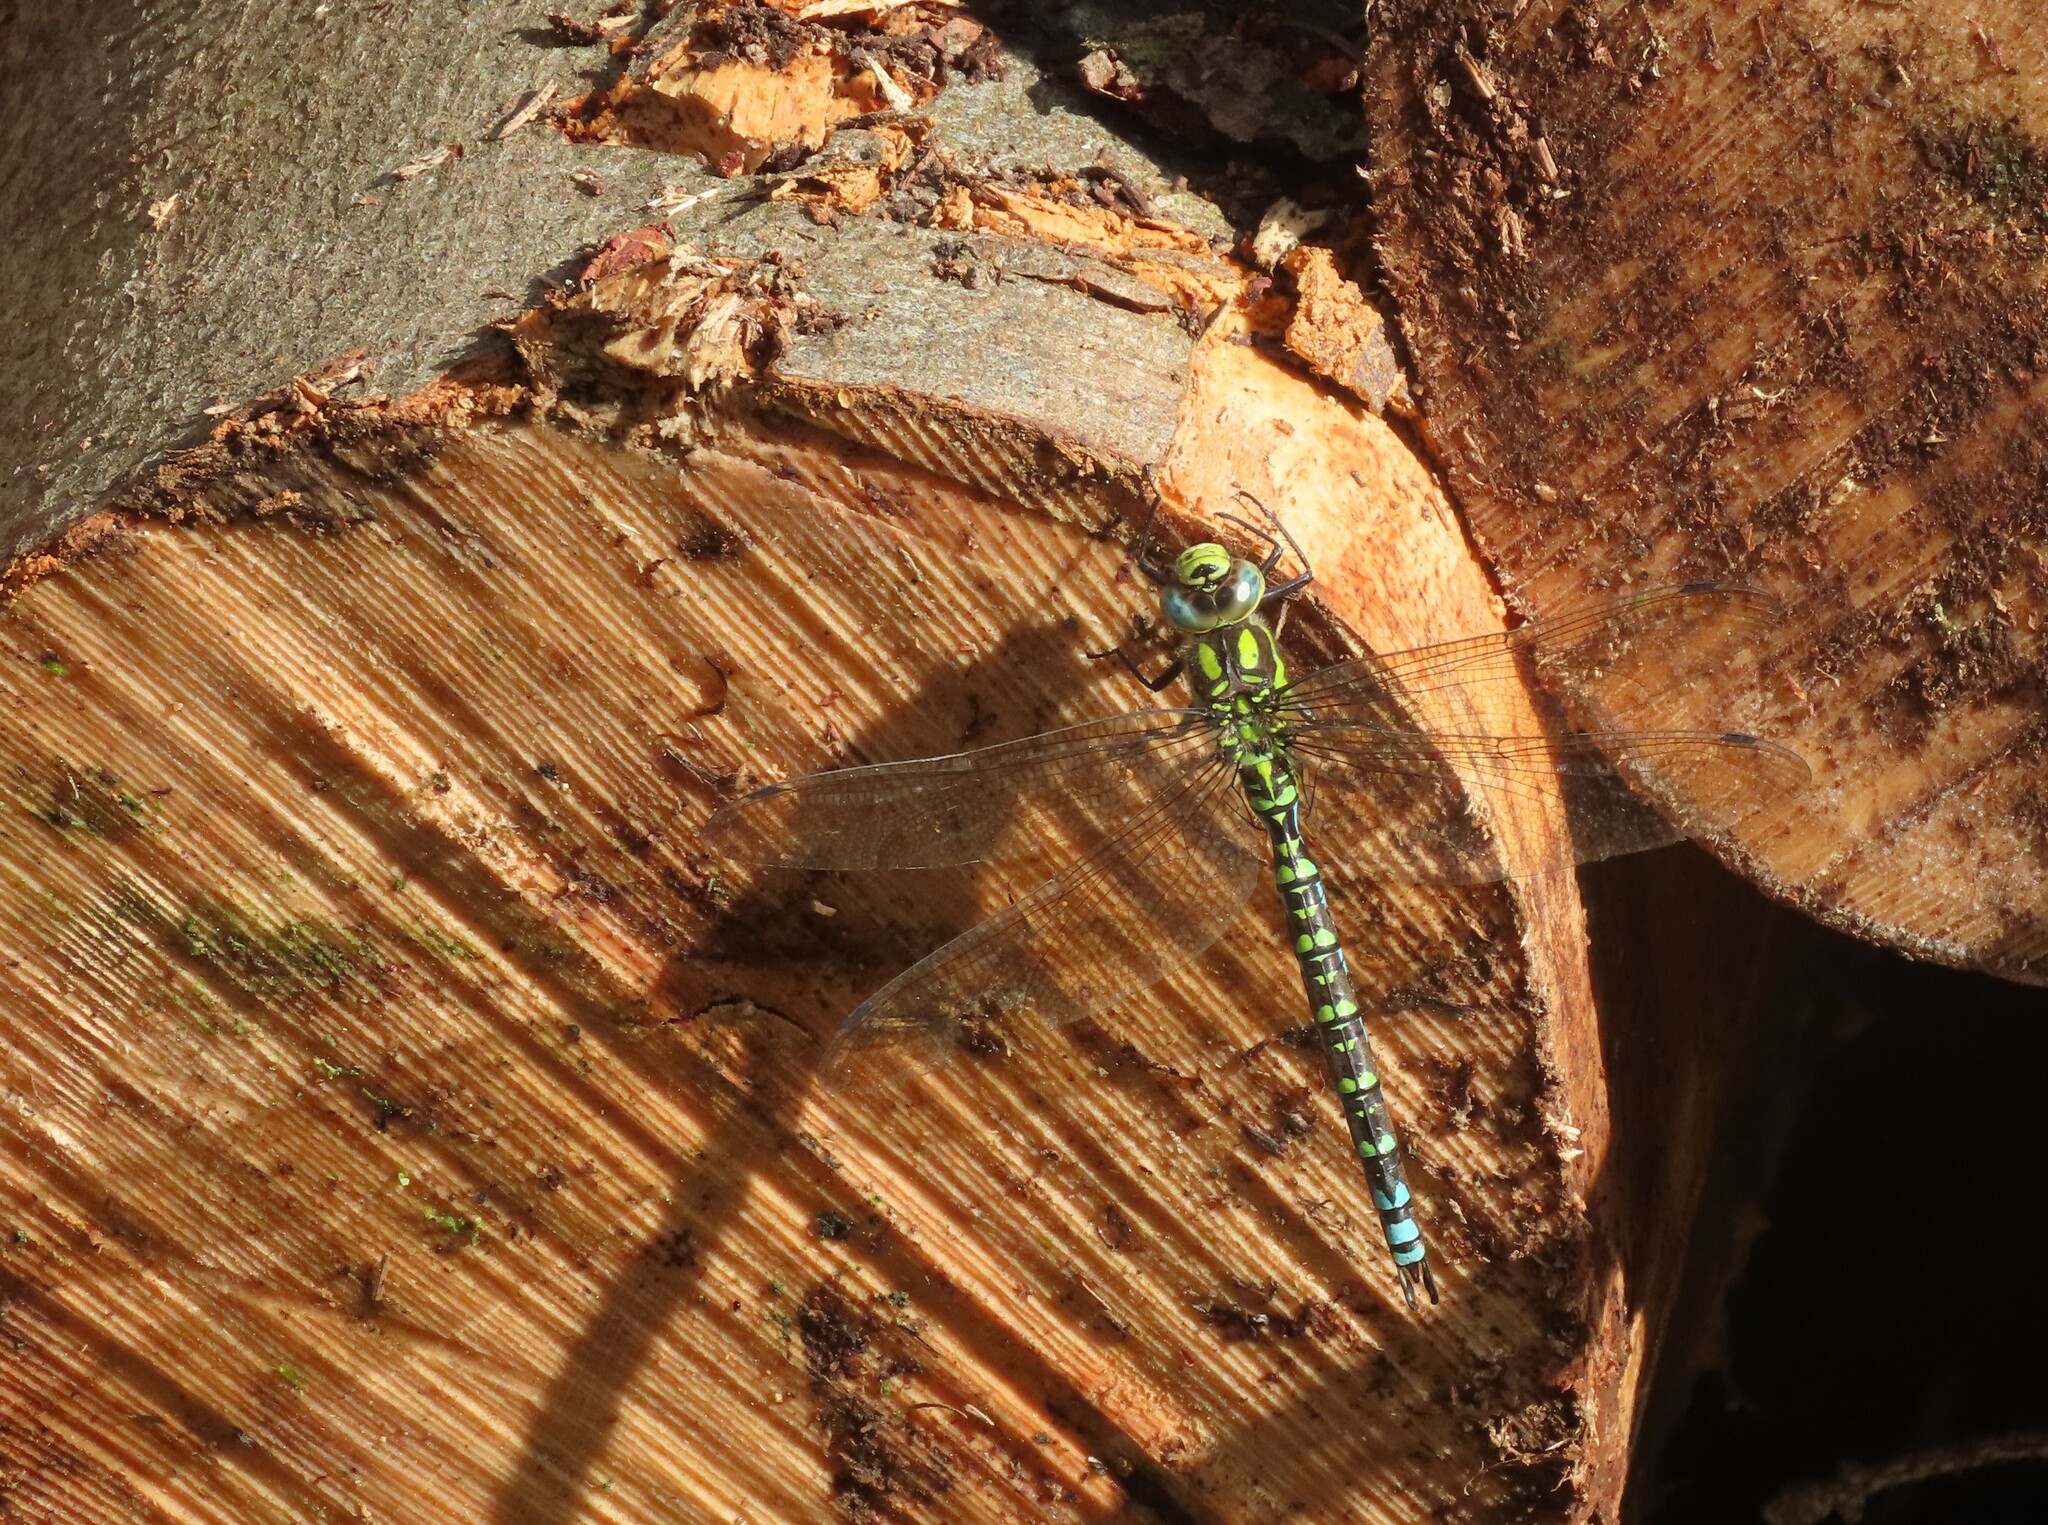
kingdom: Animalia
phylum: Arthropoda
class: Insecta
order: Odonata
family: Aeshnidae
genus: Aeshna
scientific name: Aeshna cyanea
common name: Southern hawker
